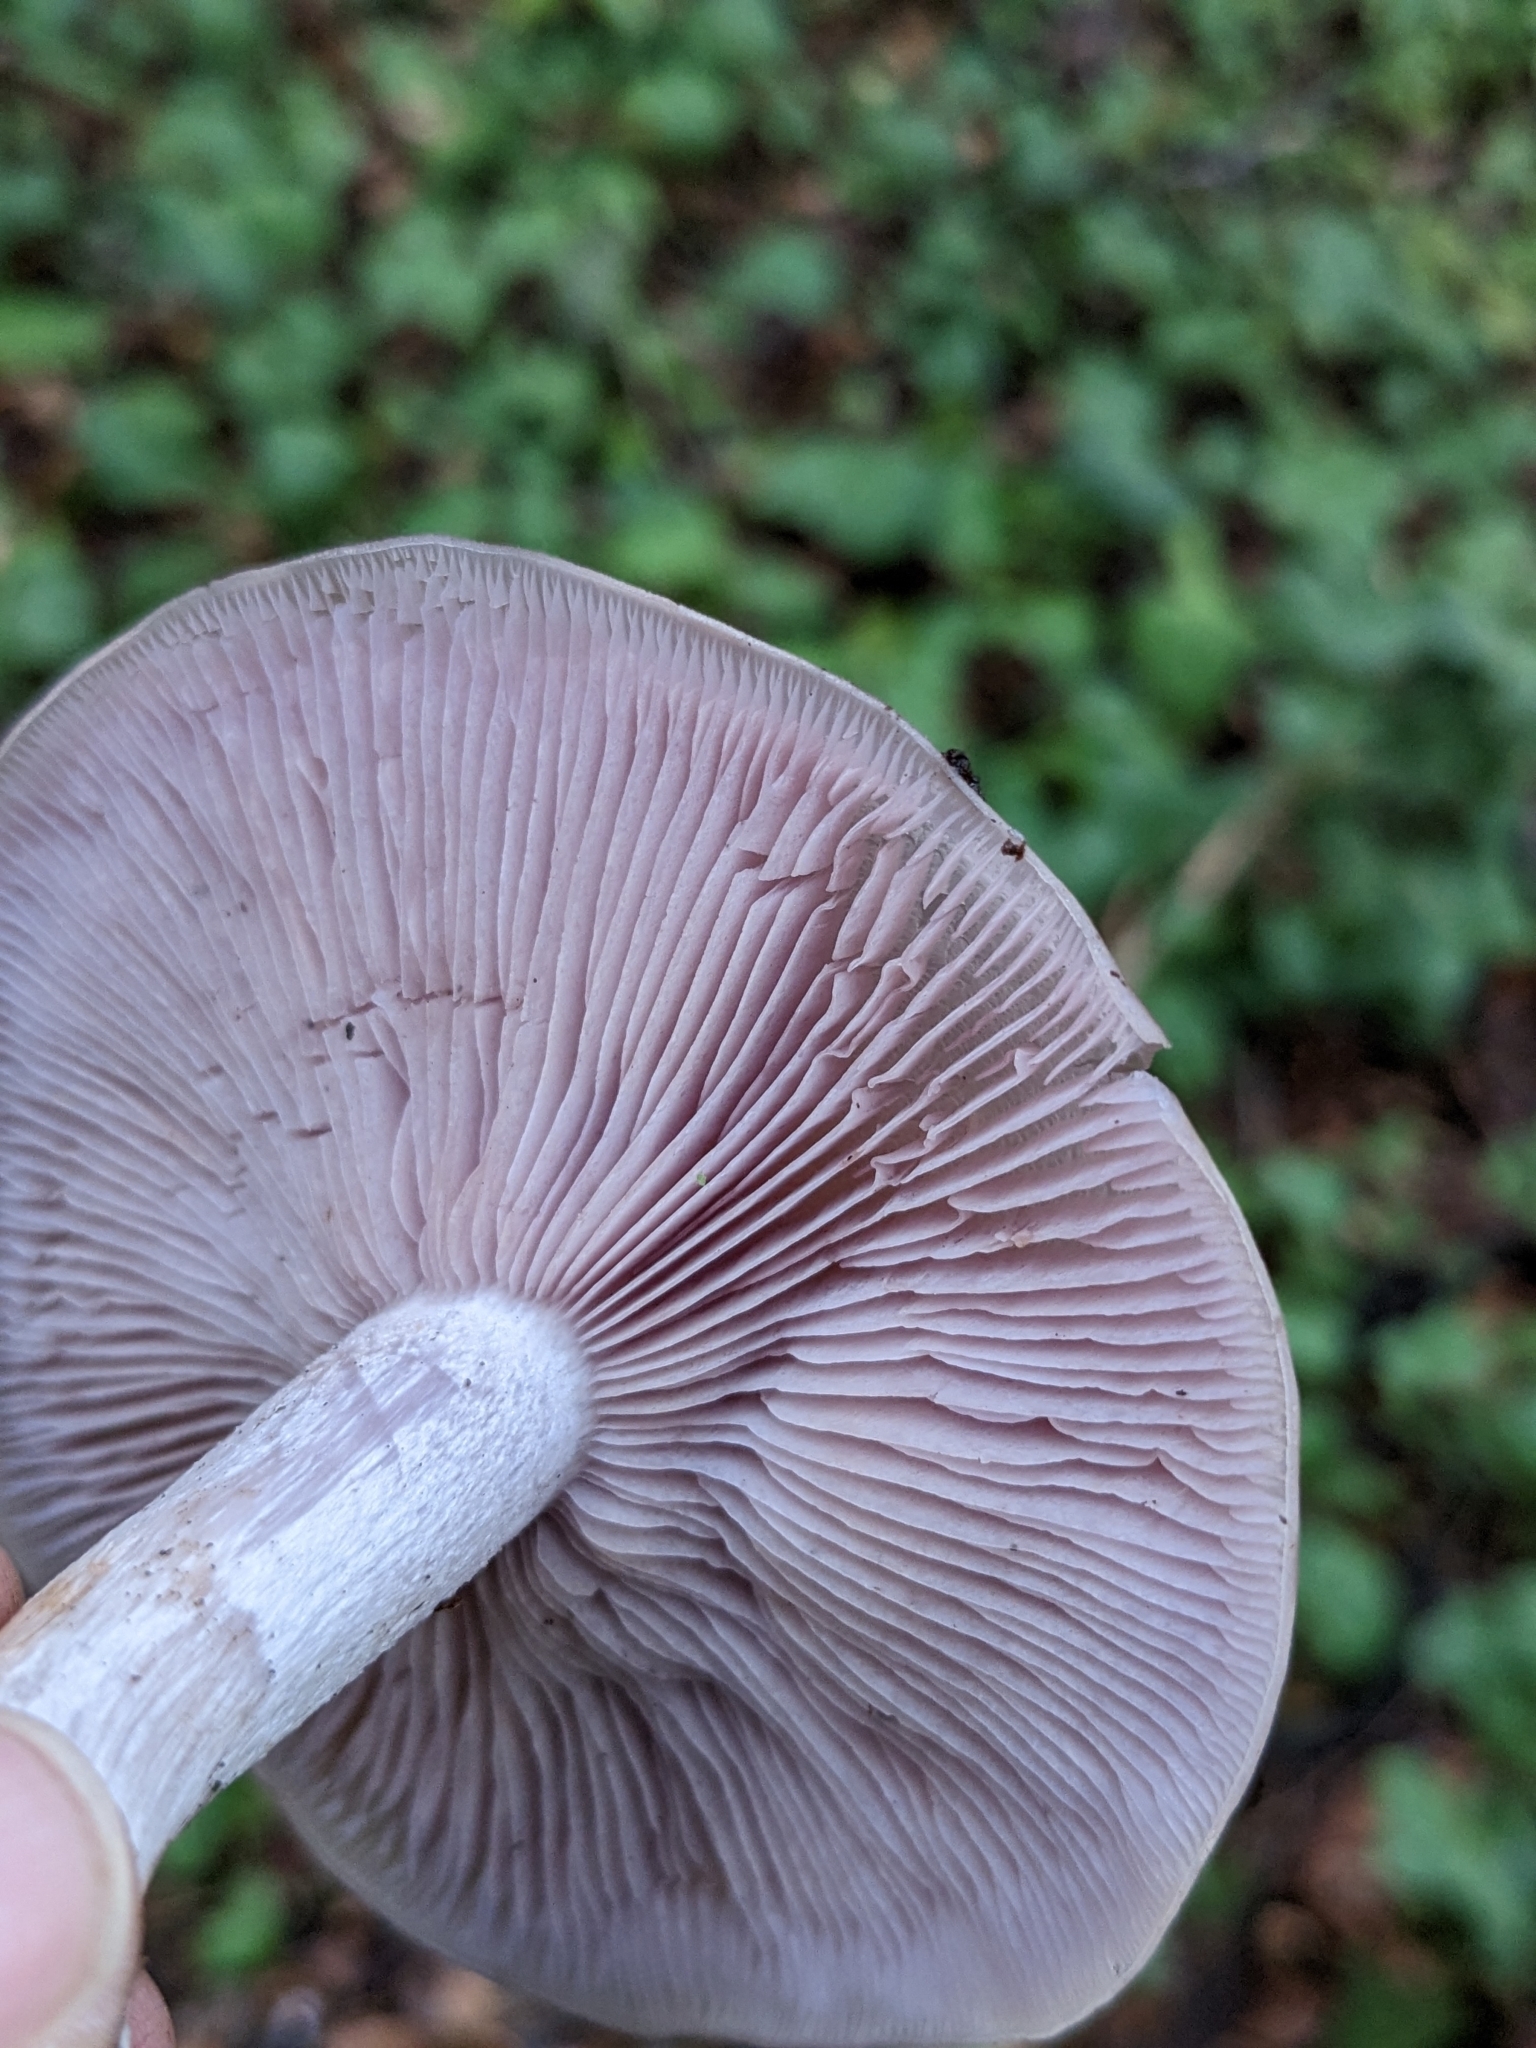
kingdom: Fungi
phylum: Basidiomycota
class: Agaricomycetes
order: Agaricales
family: Tricholomataceae
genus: Collybia
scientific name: Collybia
